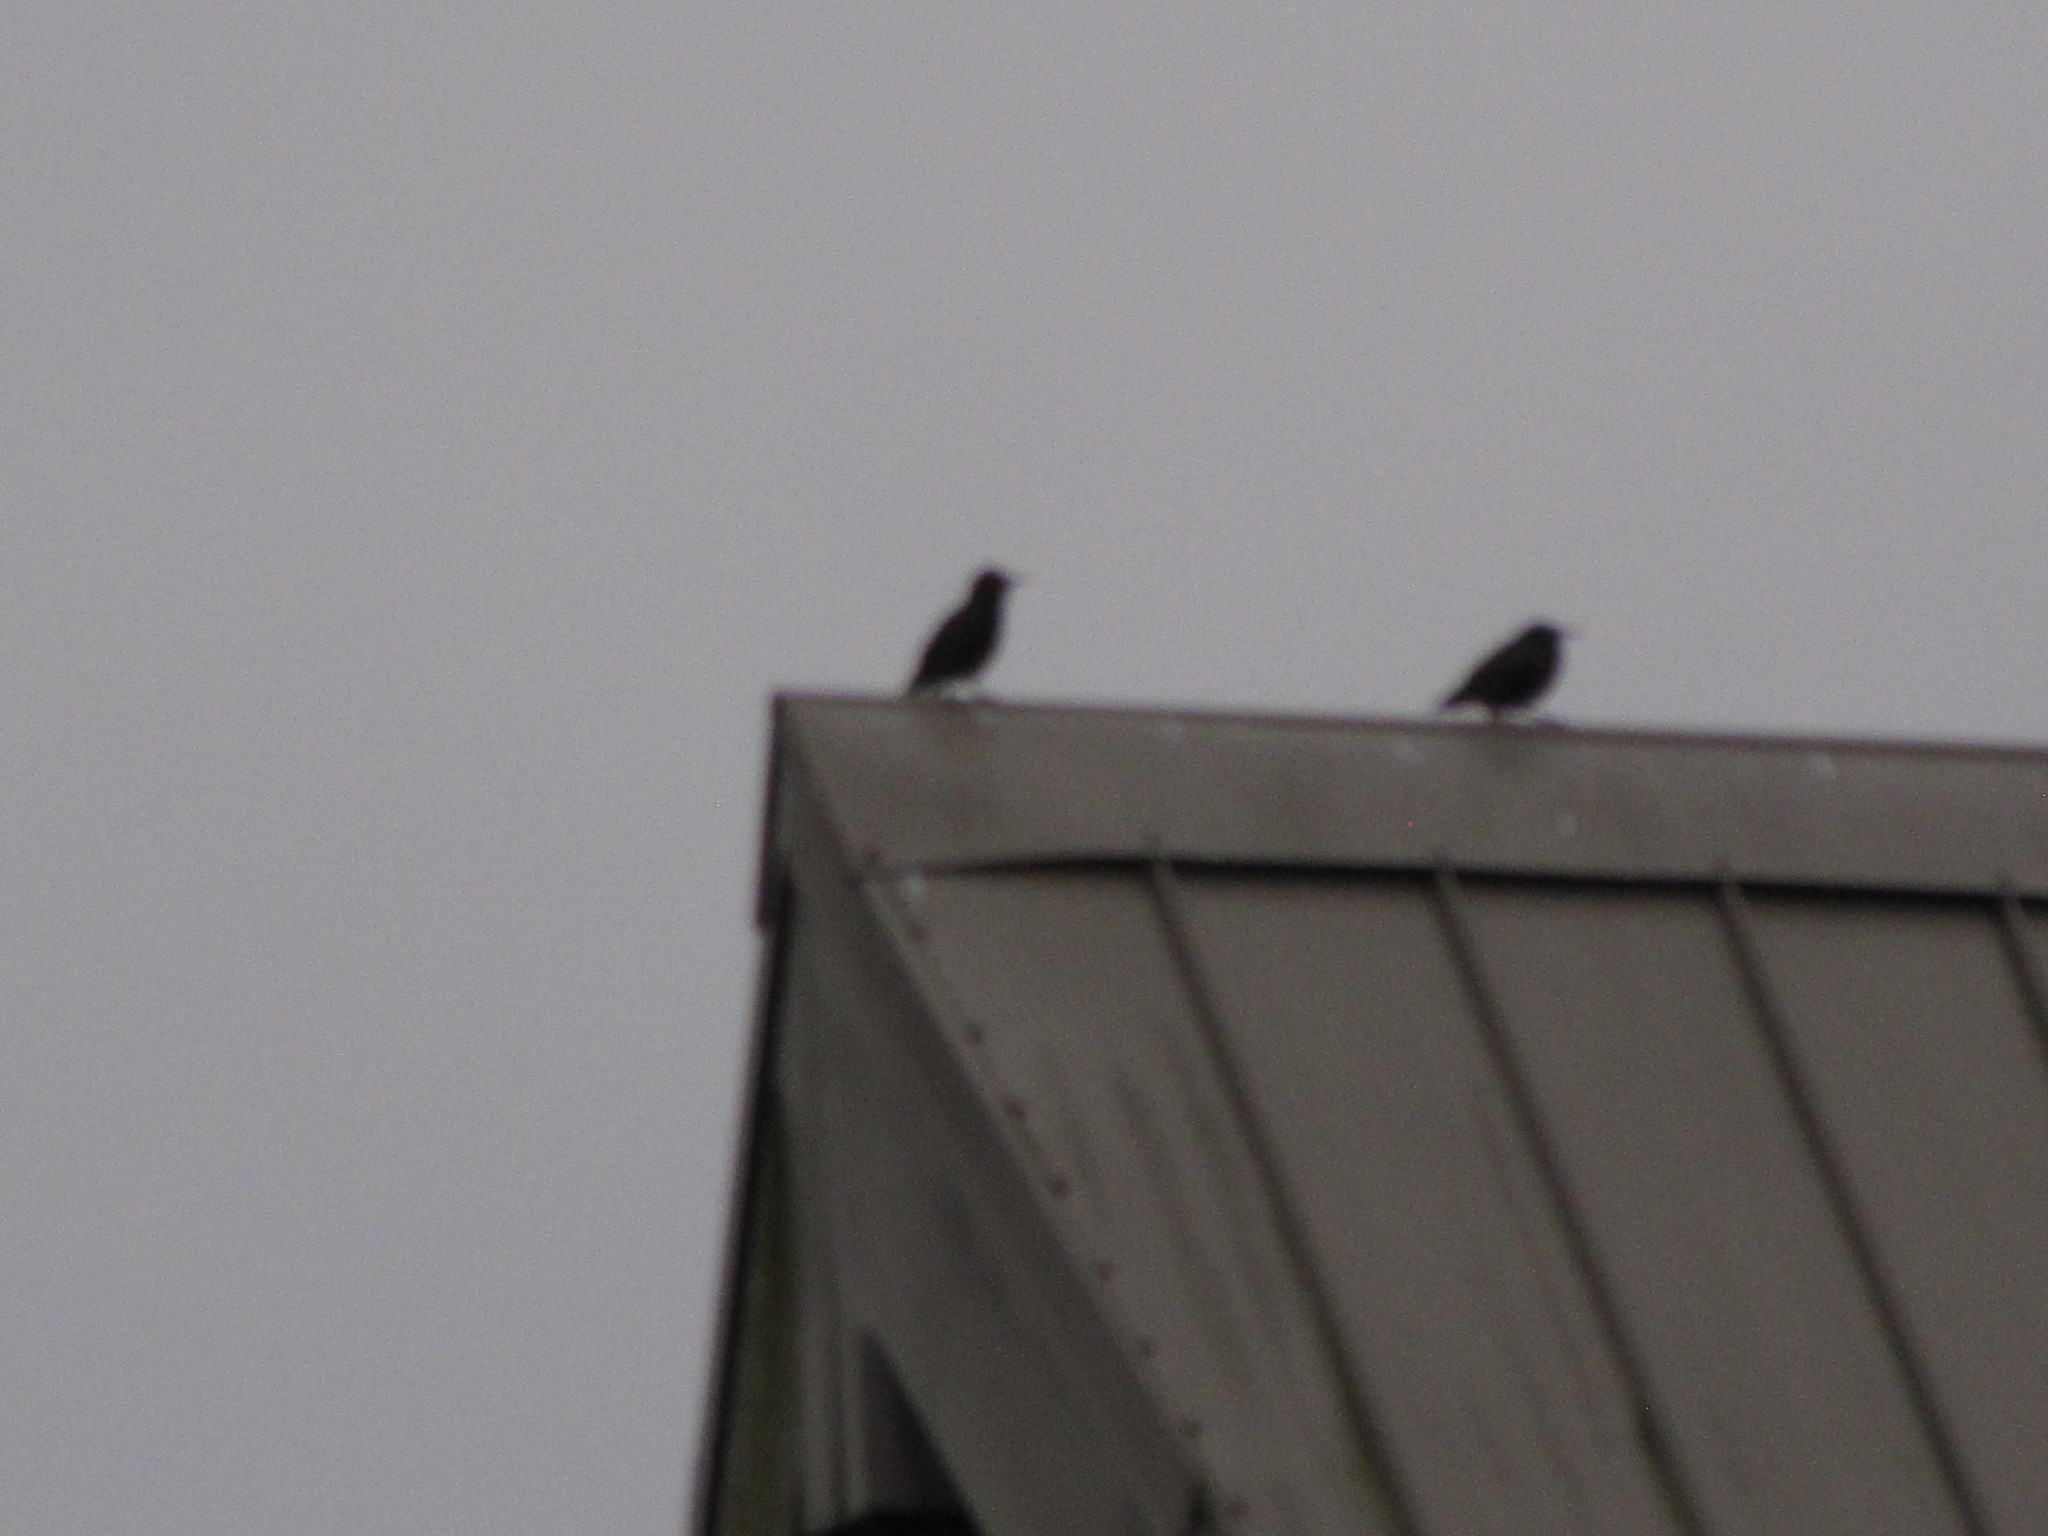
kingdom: Animalia
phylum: Chordata
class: Aves
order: Passeriformes
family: Sturnidae
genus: Sturnus
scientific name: Sturnus vulgaris
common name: Common starling
